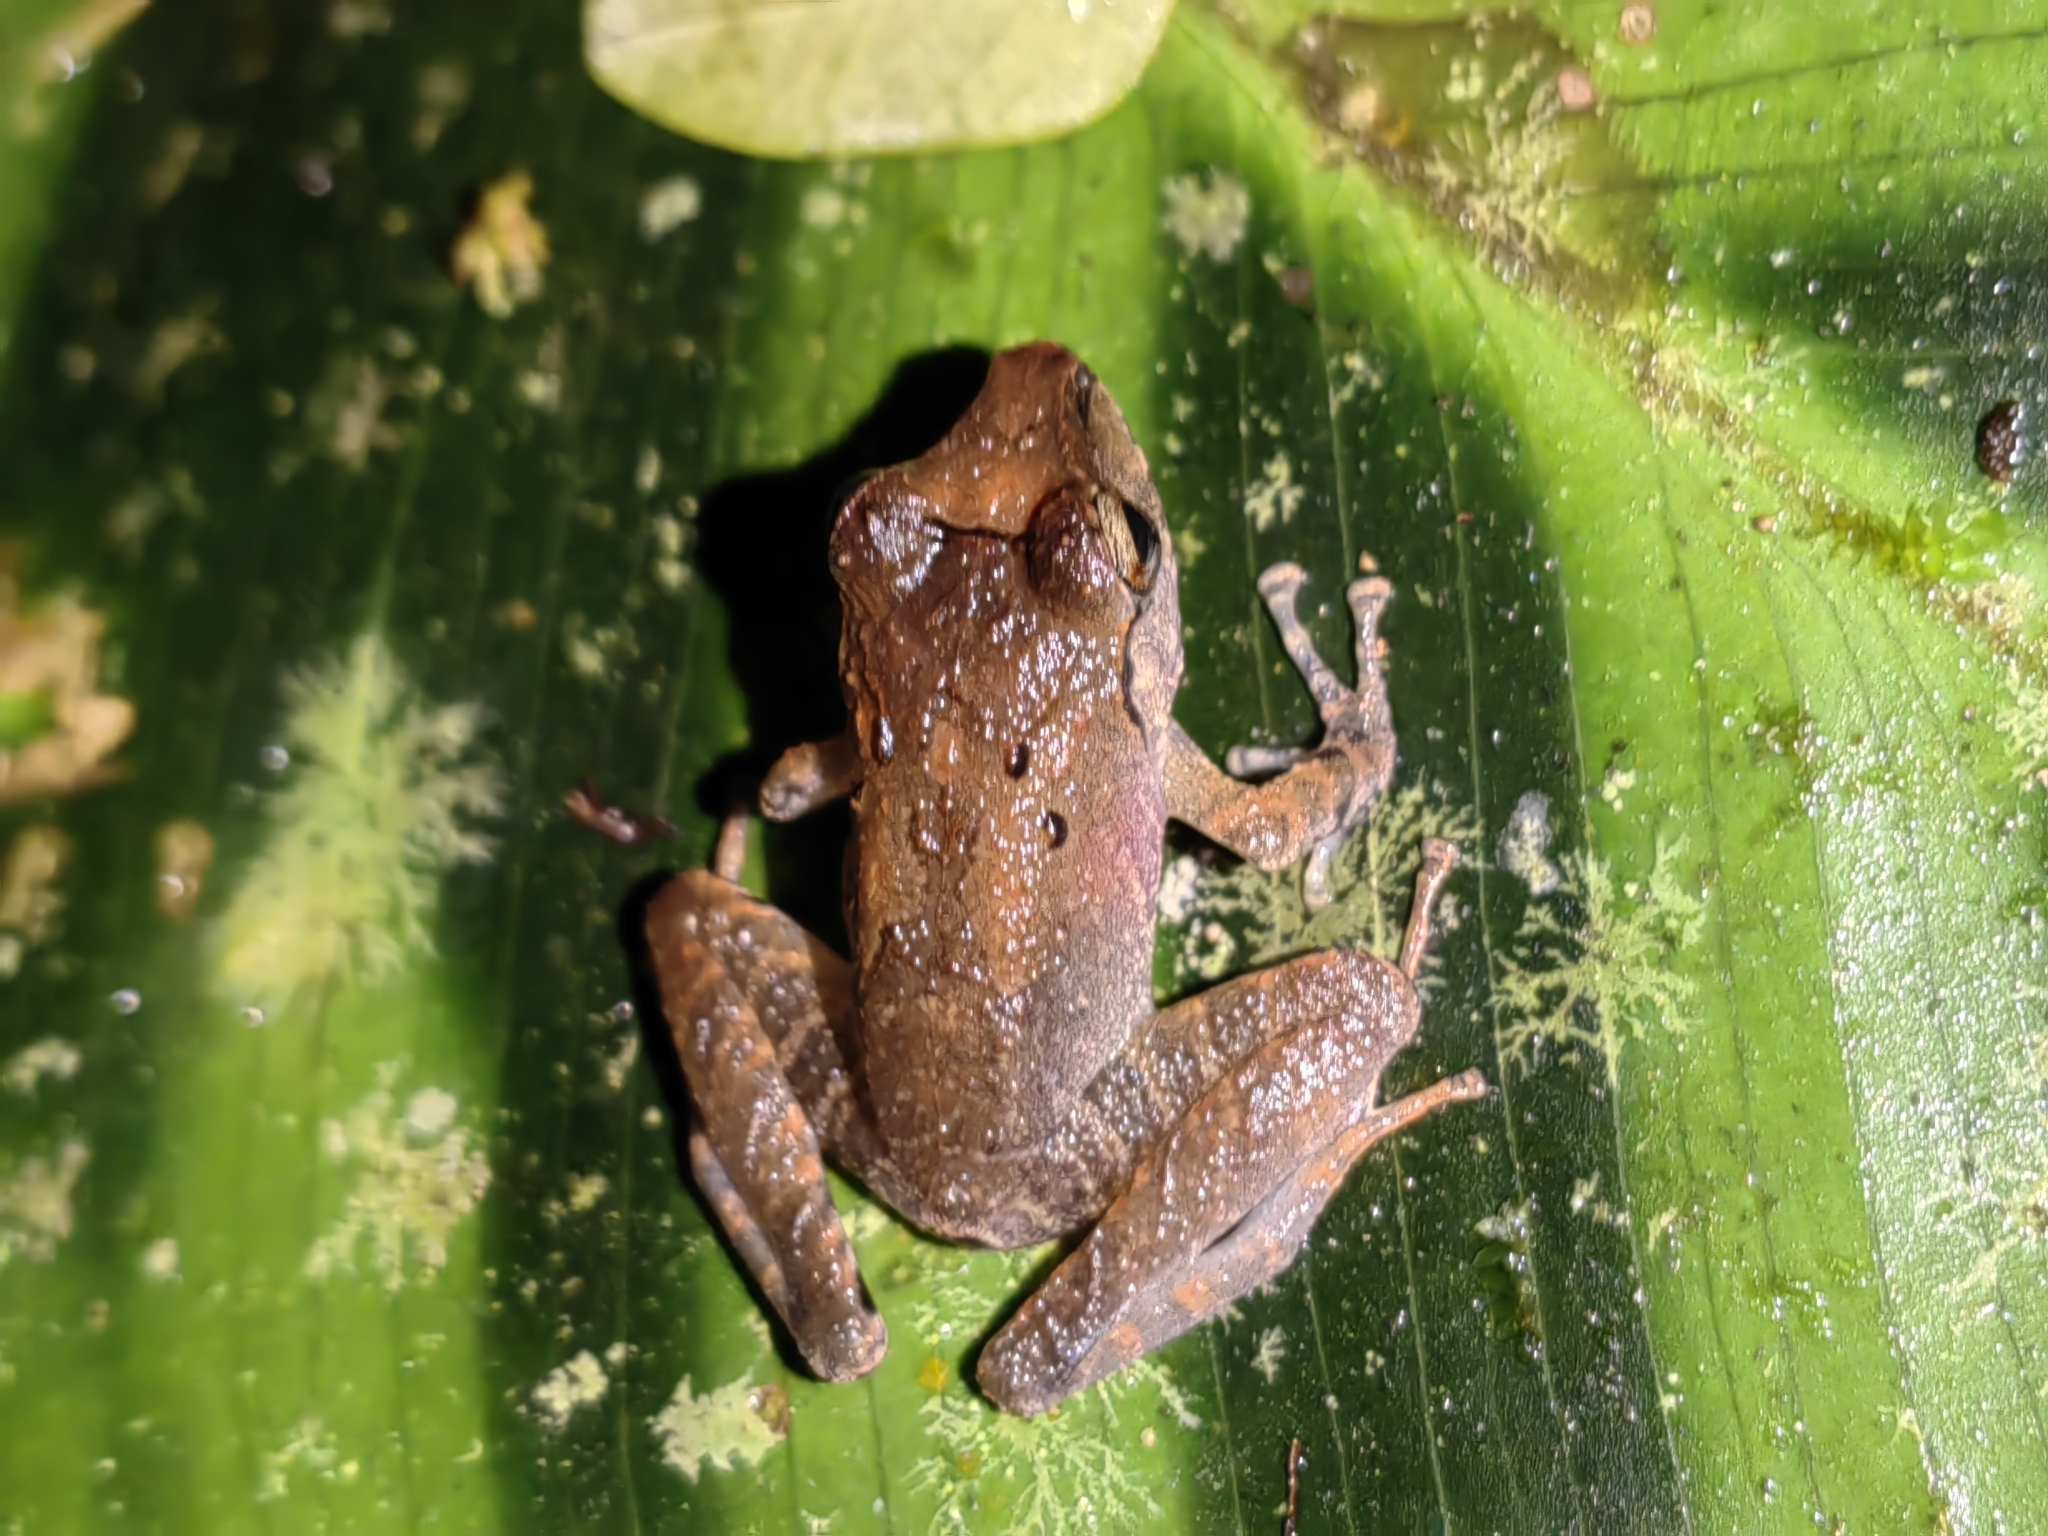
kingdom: Animalia
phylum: Chordata
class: Amphibia
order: Anura
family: Craugastoridae
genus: Craugastor
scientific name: Craugastor crassidigitus
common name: Isla bonita robber frog
